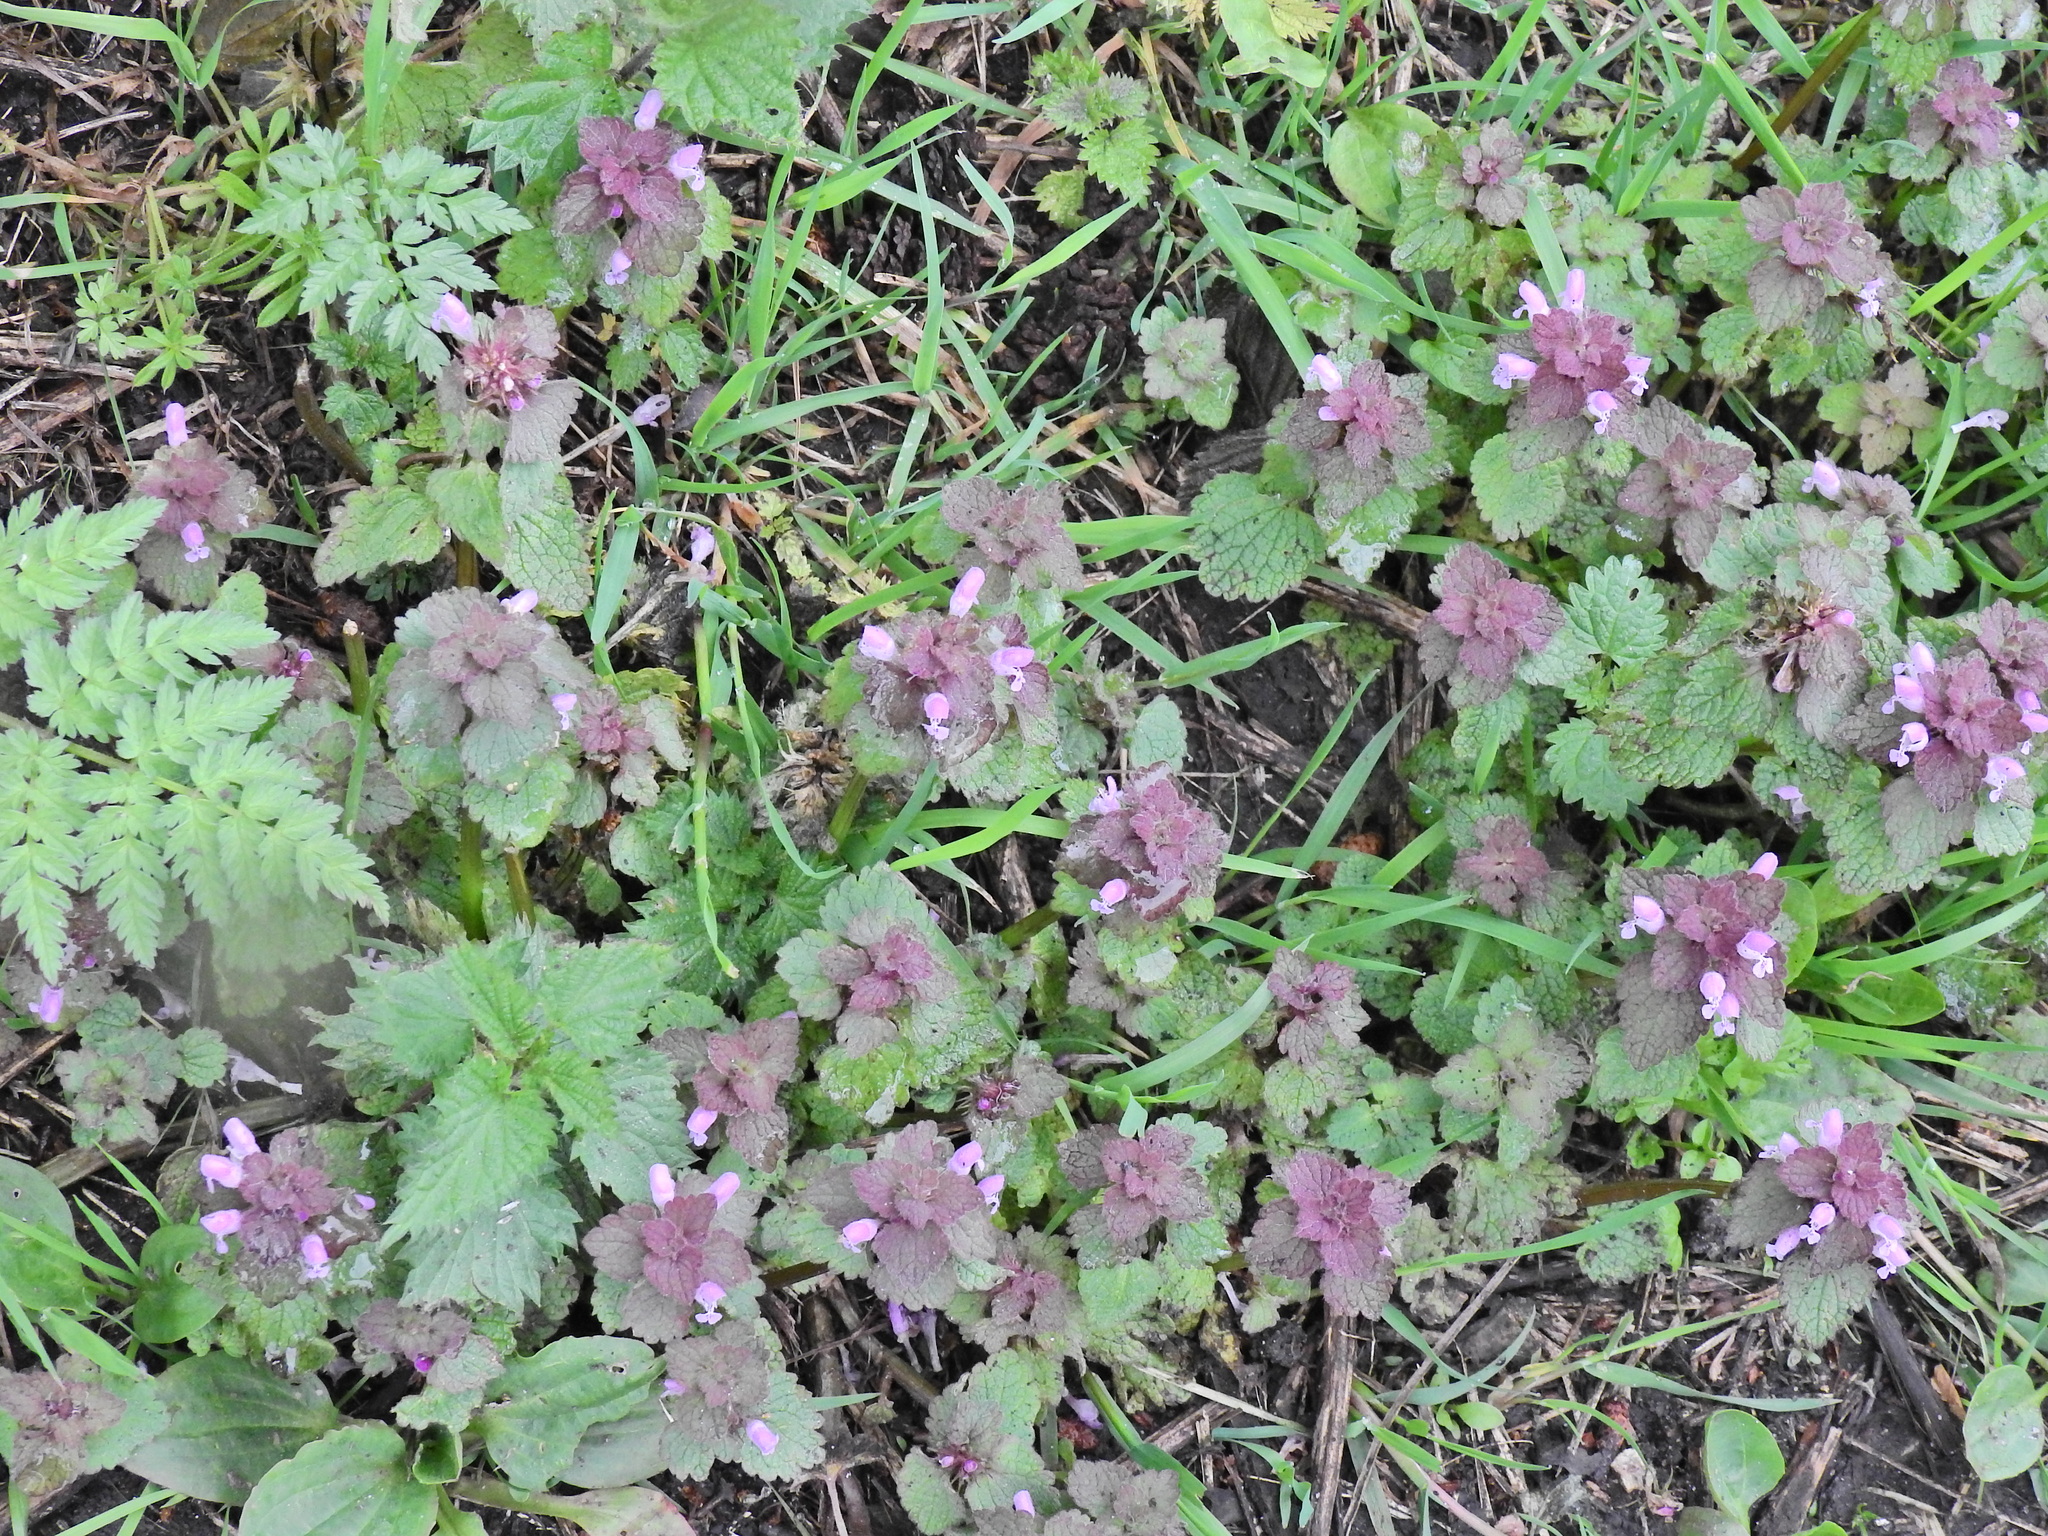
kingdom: Plantae
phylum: Tracheophyta
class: Magnoliopsida
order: Lamiales
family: Lamiaceae
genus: Lamium
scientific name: Lamium purpureum
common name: Red dead-nettle
